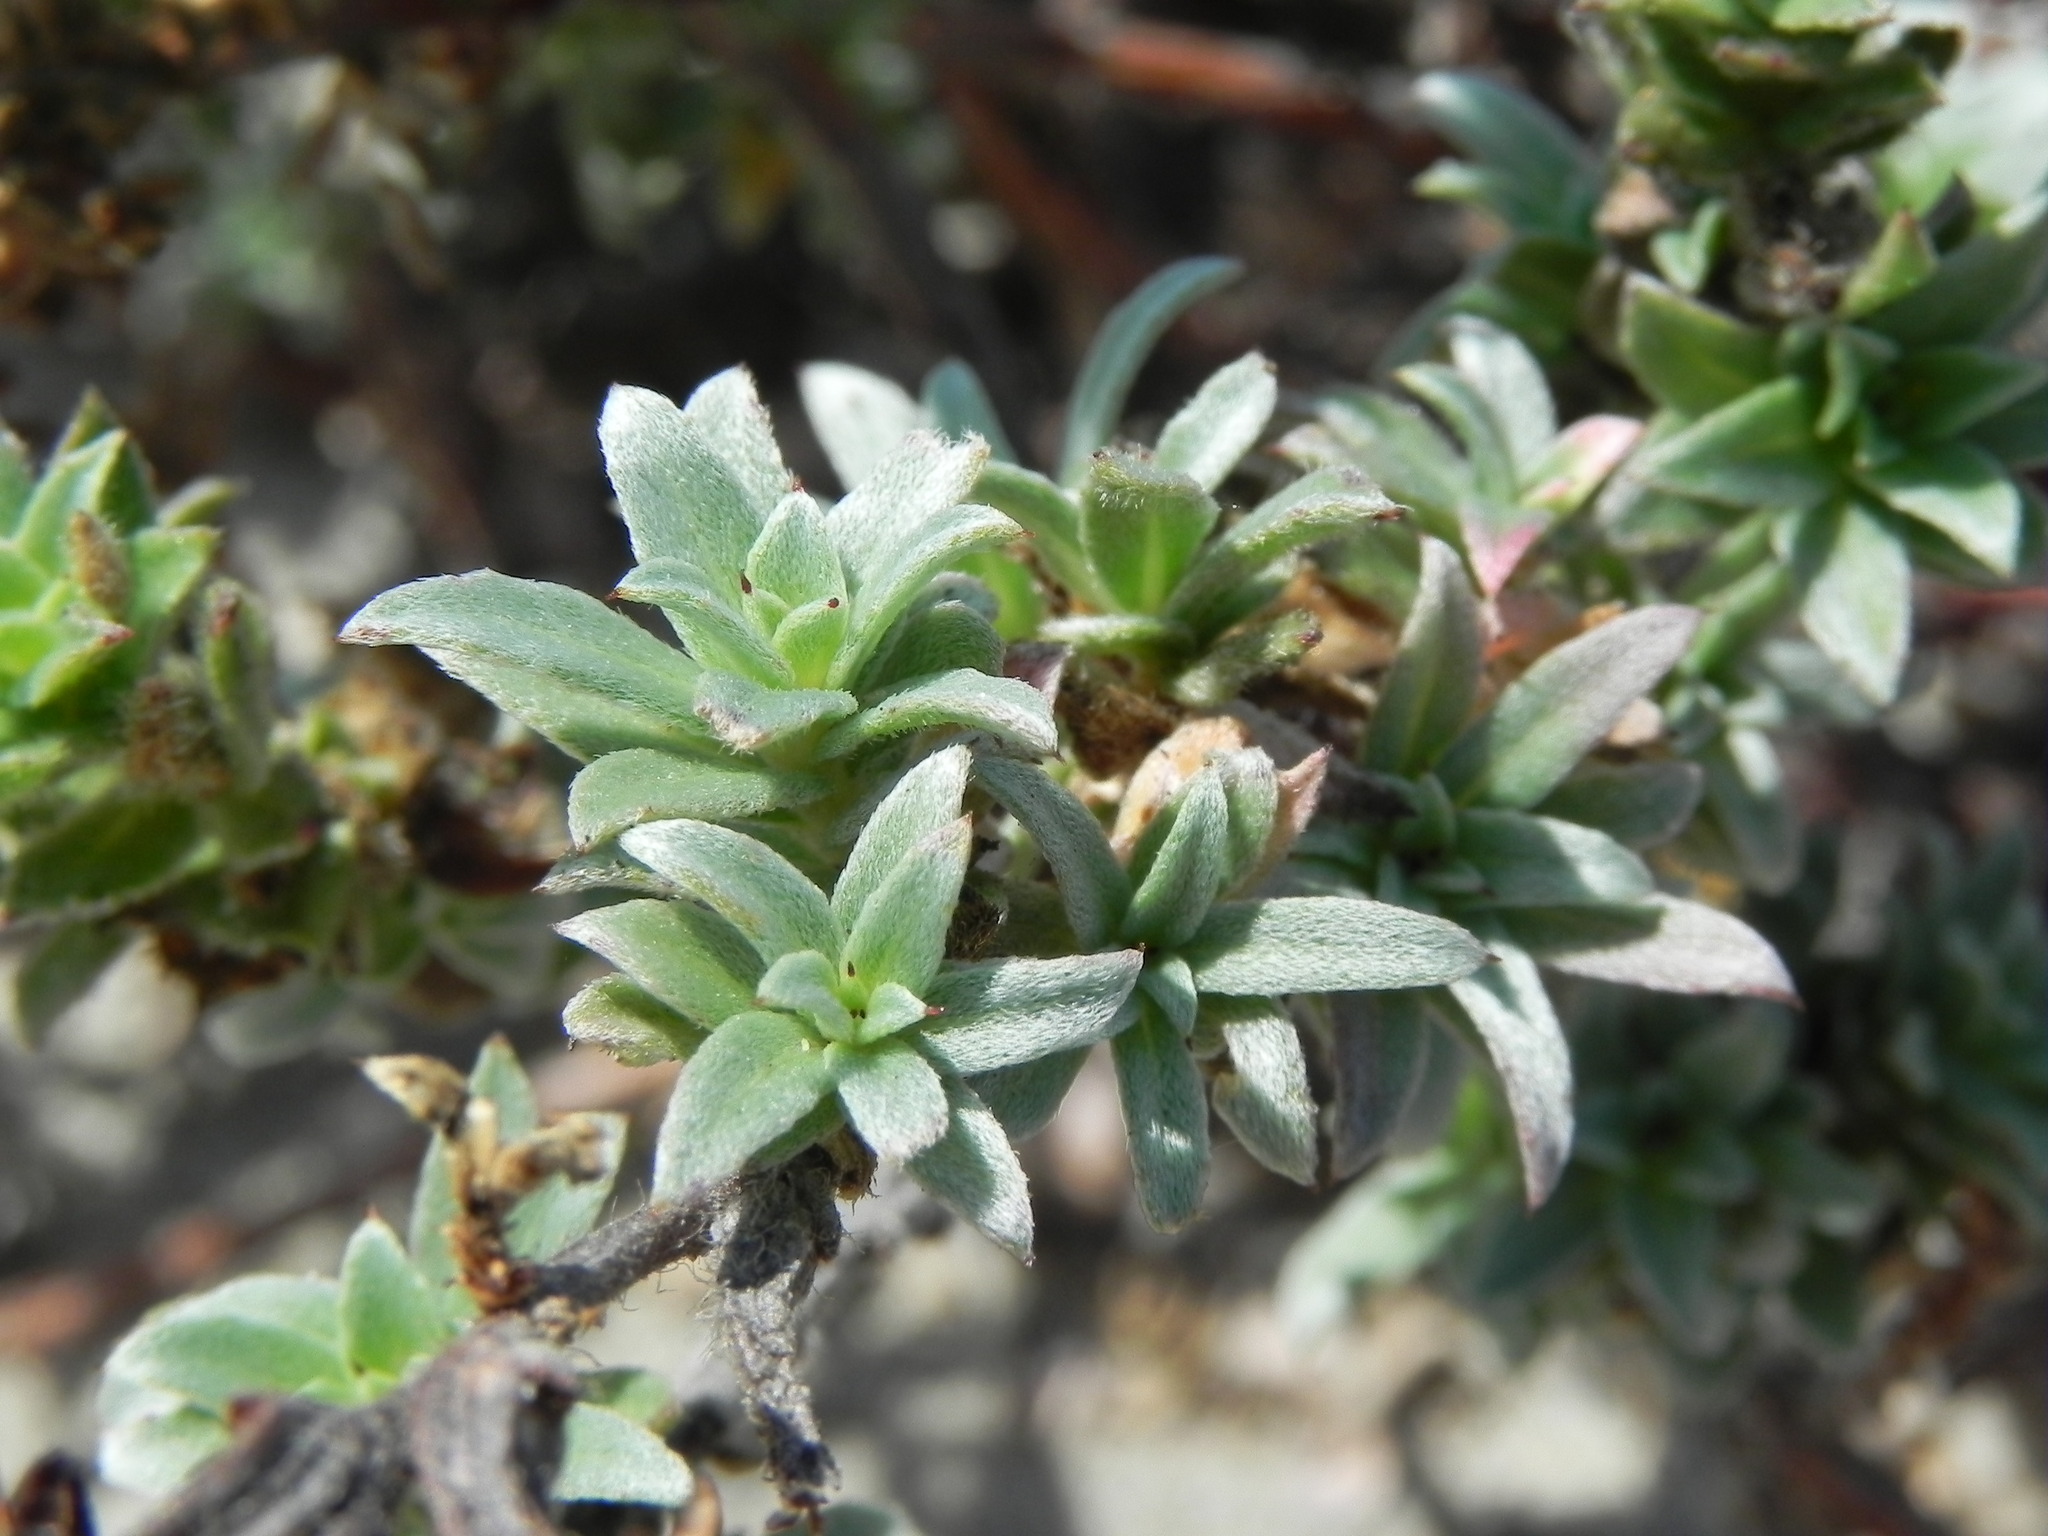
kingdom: Plantae
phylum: Tracheophyta
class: Magnoliopsida
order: Myrtales
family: Onagraceae
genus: Camissoniopsis
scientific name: Camissoniopsis cheiranthifolia
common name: Beach suncup
